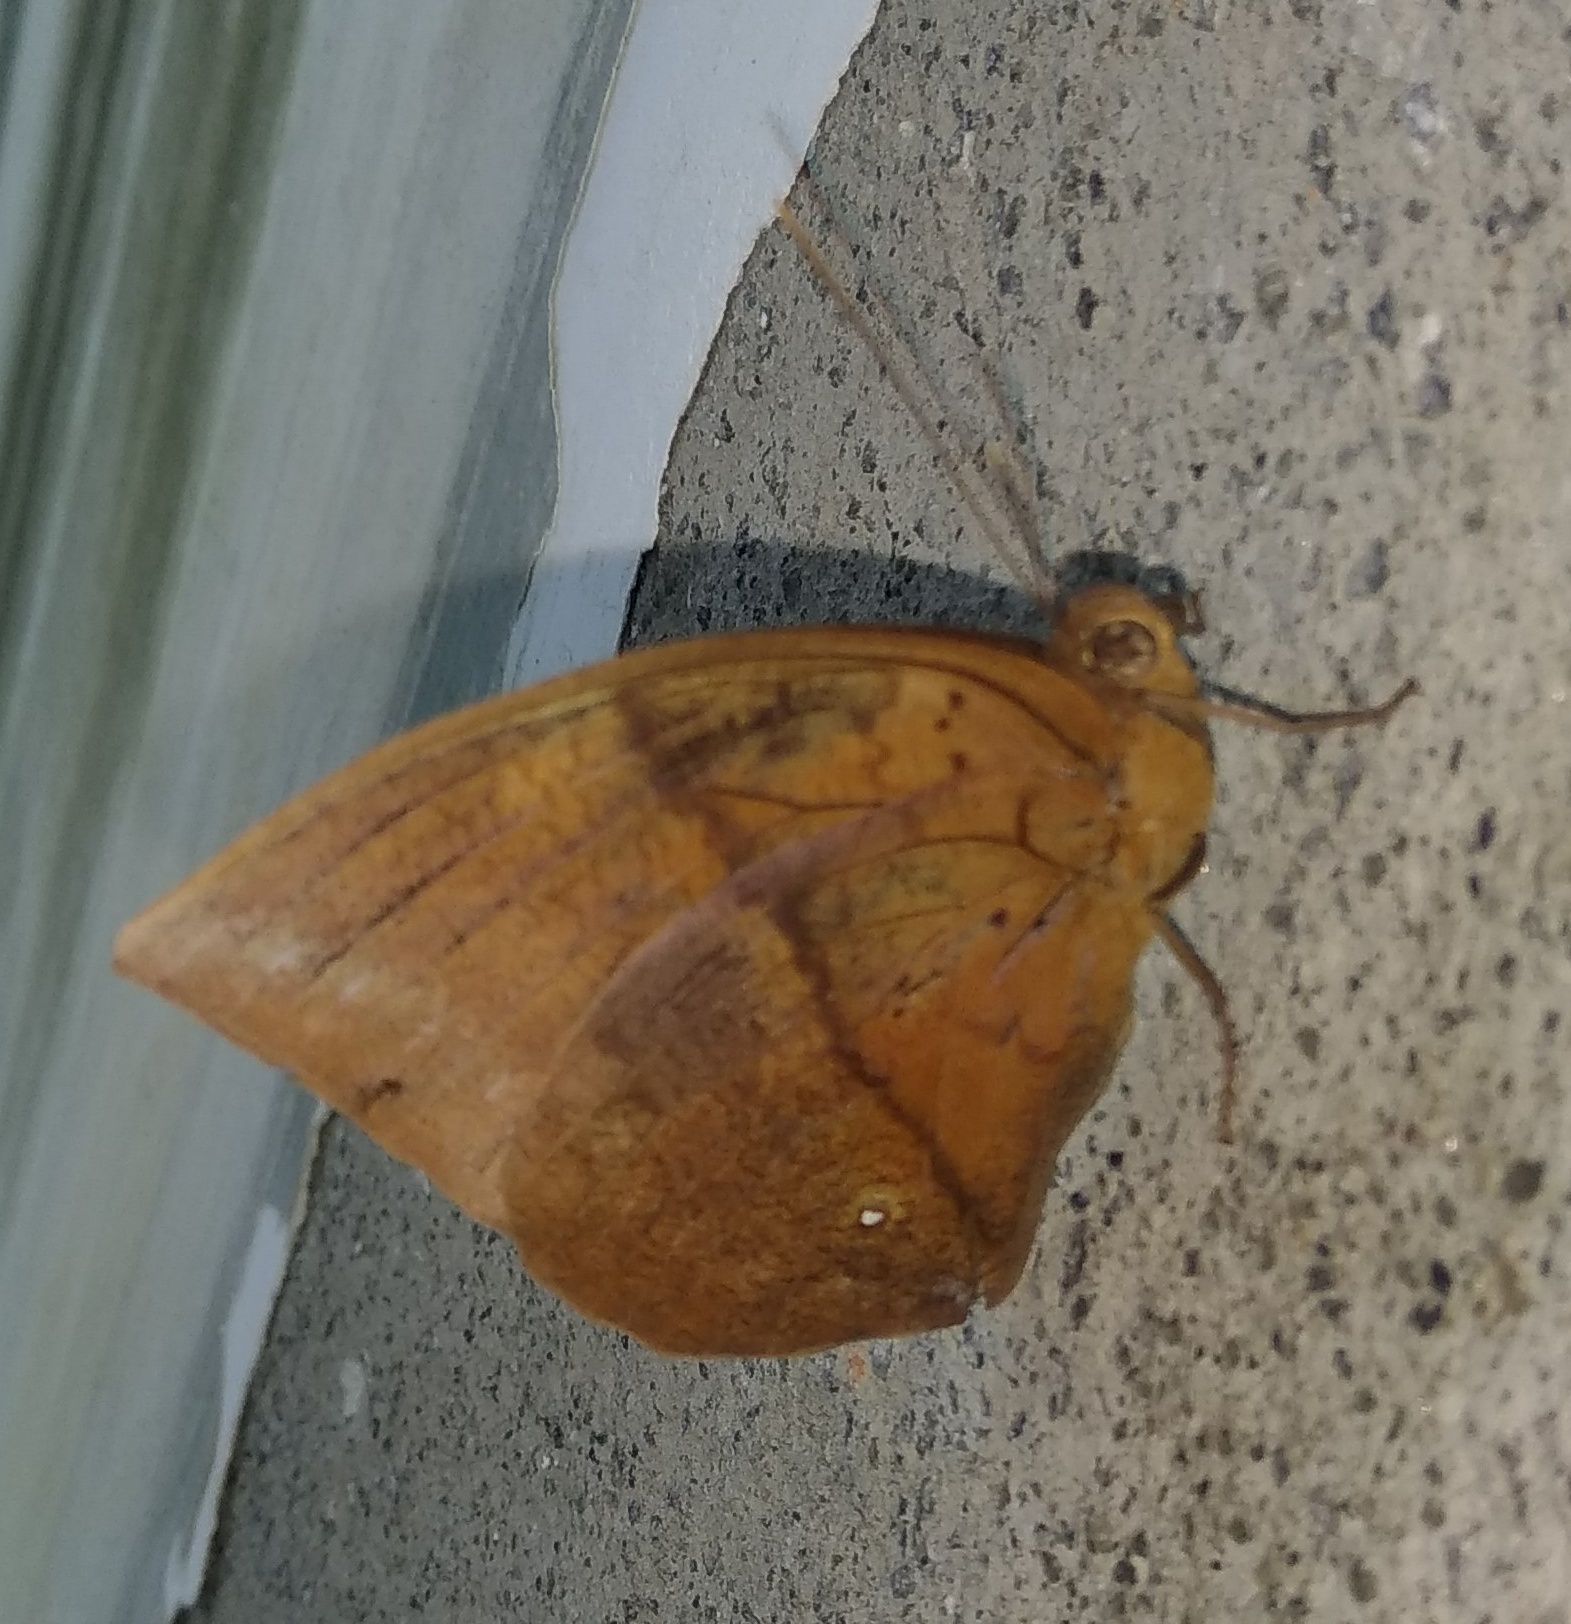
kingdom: Animalia
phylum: Arthropoda
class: Insecta
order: Lepidoptera
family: Nymphalidae
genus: Discophora
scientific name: Discophora lepida
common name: Southern duffer
